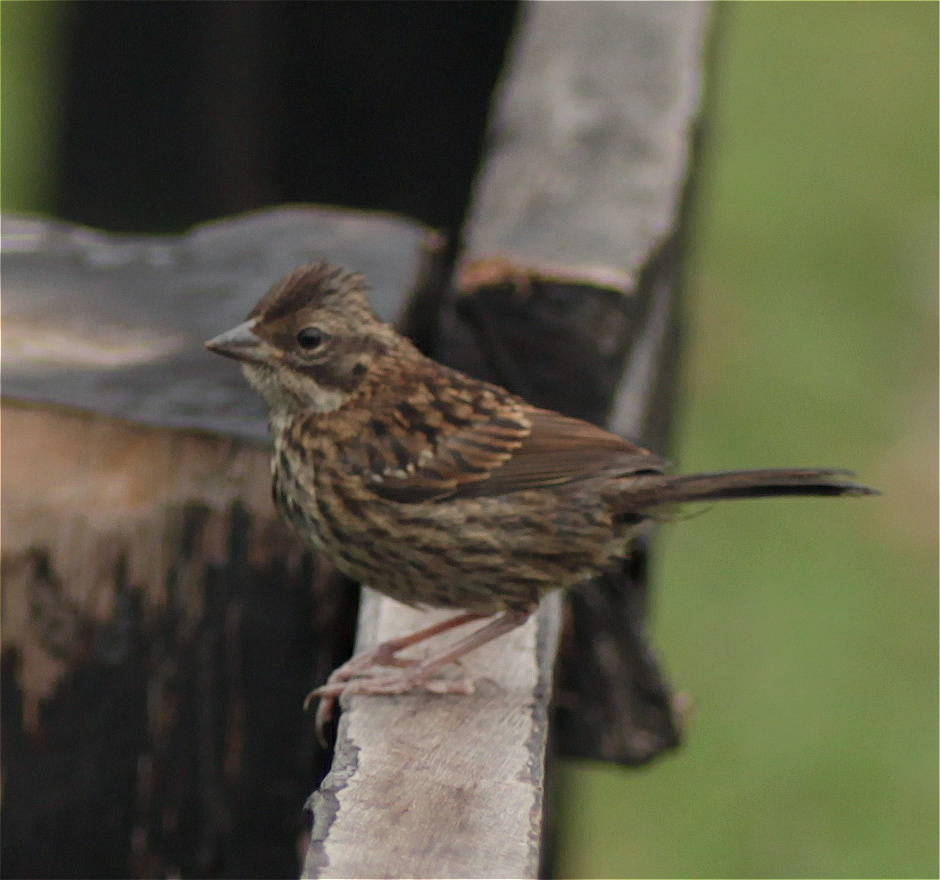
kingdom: Animalia
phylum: Chordata
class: Aves
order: Passeriformes
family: Passerellidae
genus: Zonotrichia
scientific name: Zonotrichia capensis
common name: Rufous-collared sparrow
